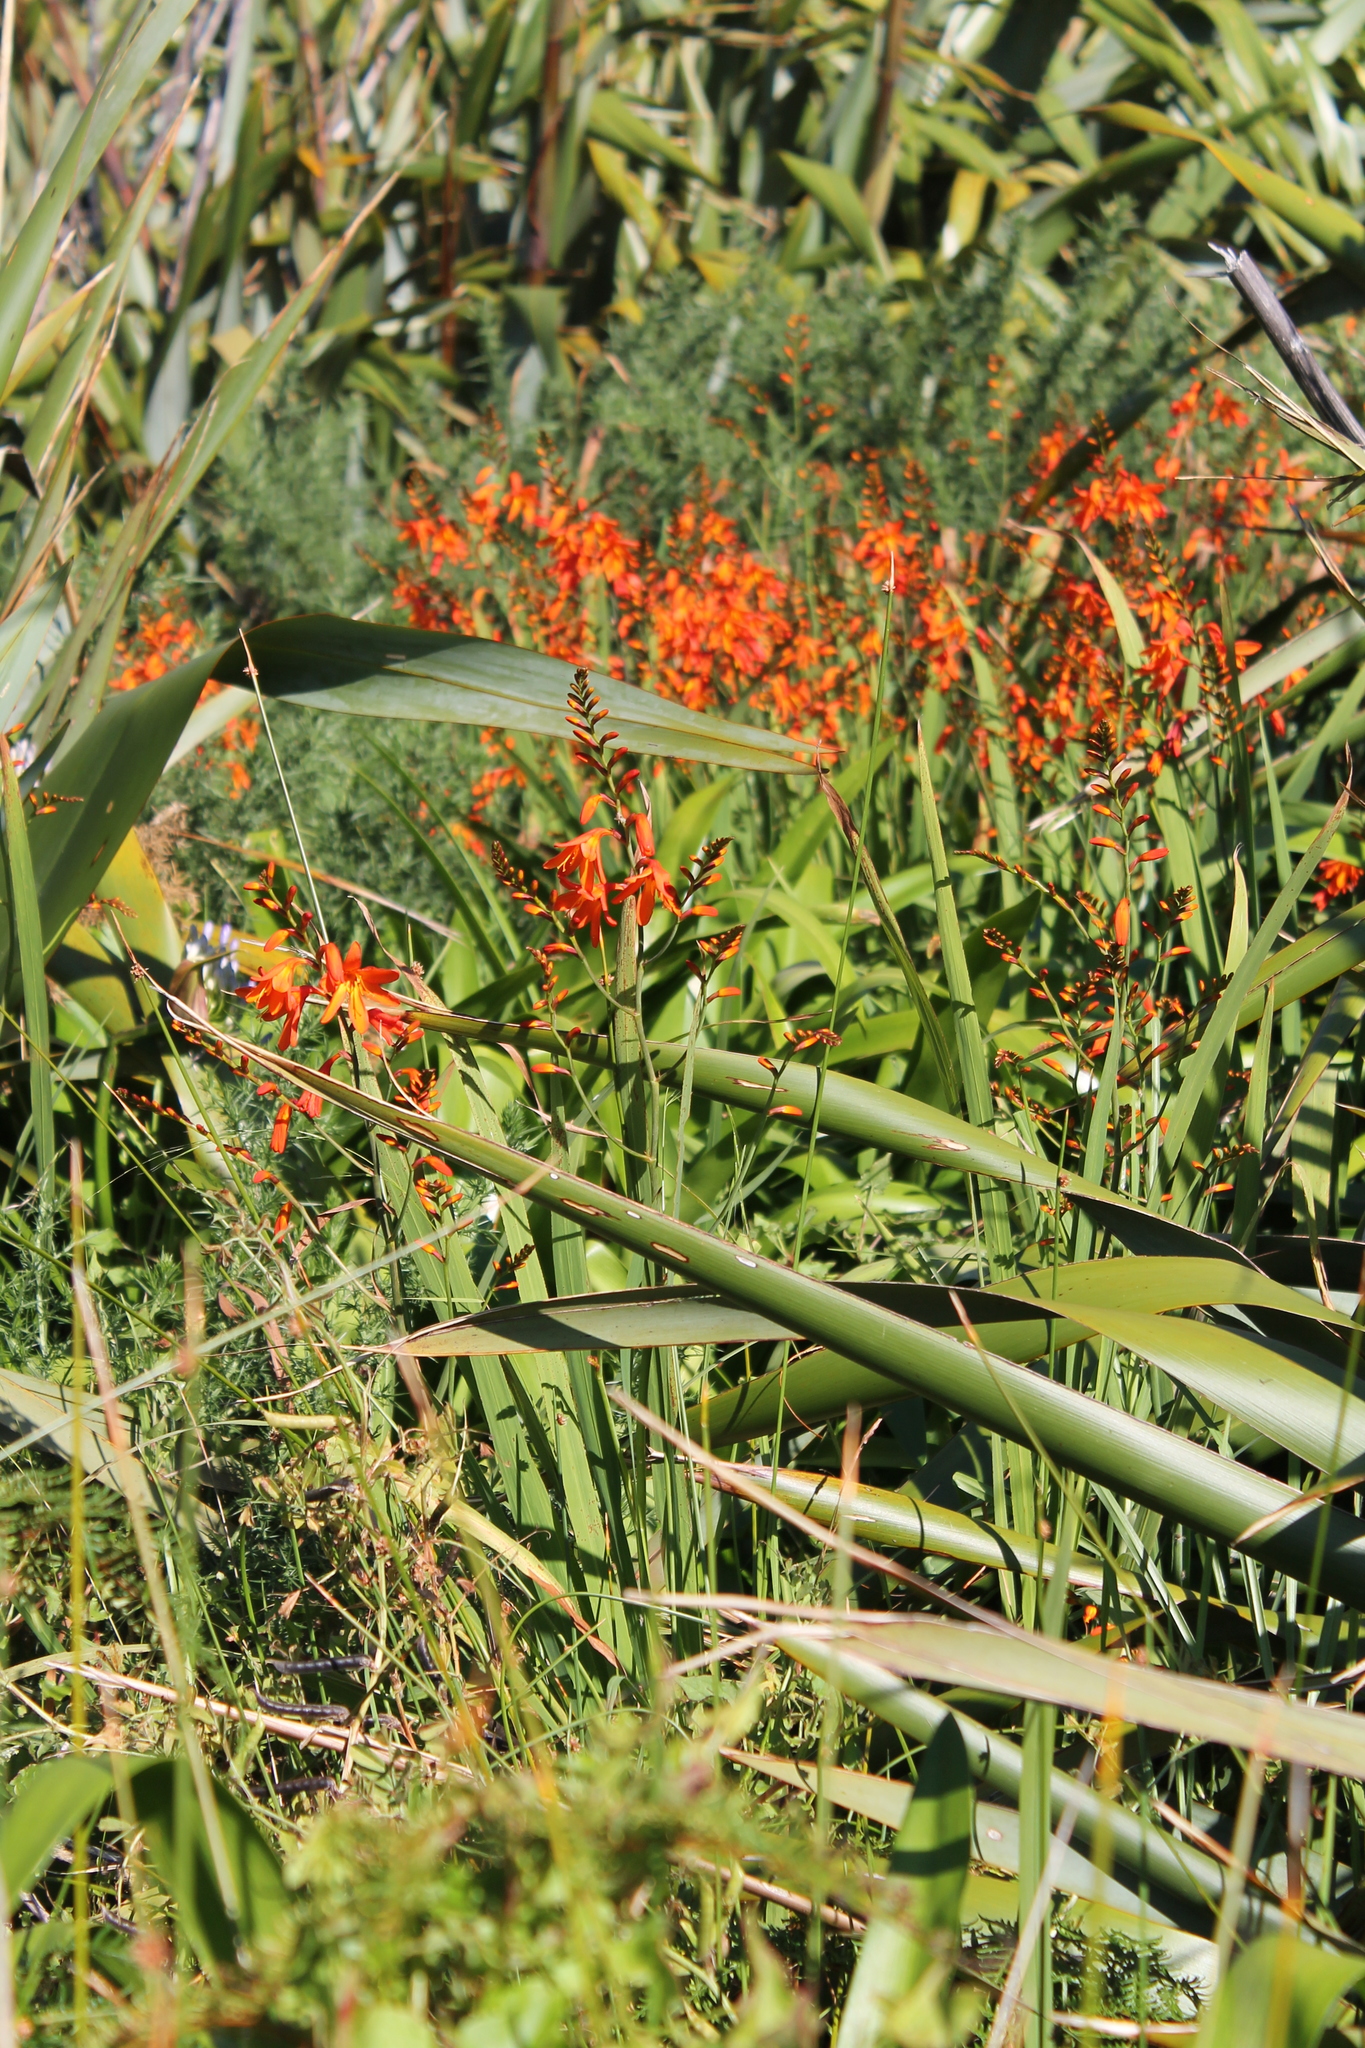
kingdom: Plantae
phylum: Tracheophyta
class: Liliopsida
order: Asparagales
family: Iridaceae
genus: Crocosmia
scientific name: Crocosmia crocosmiiflora
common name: Montbretia
